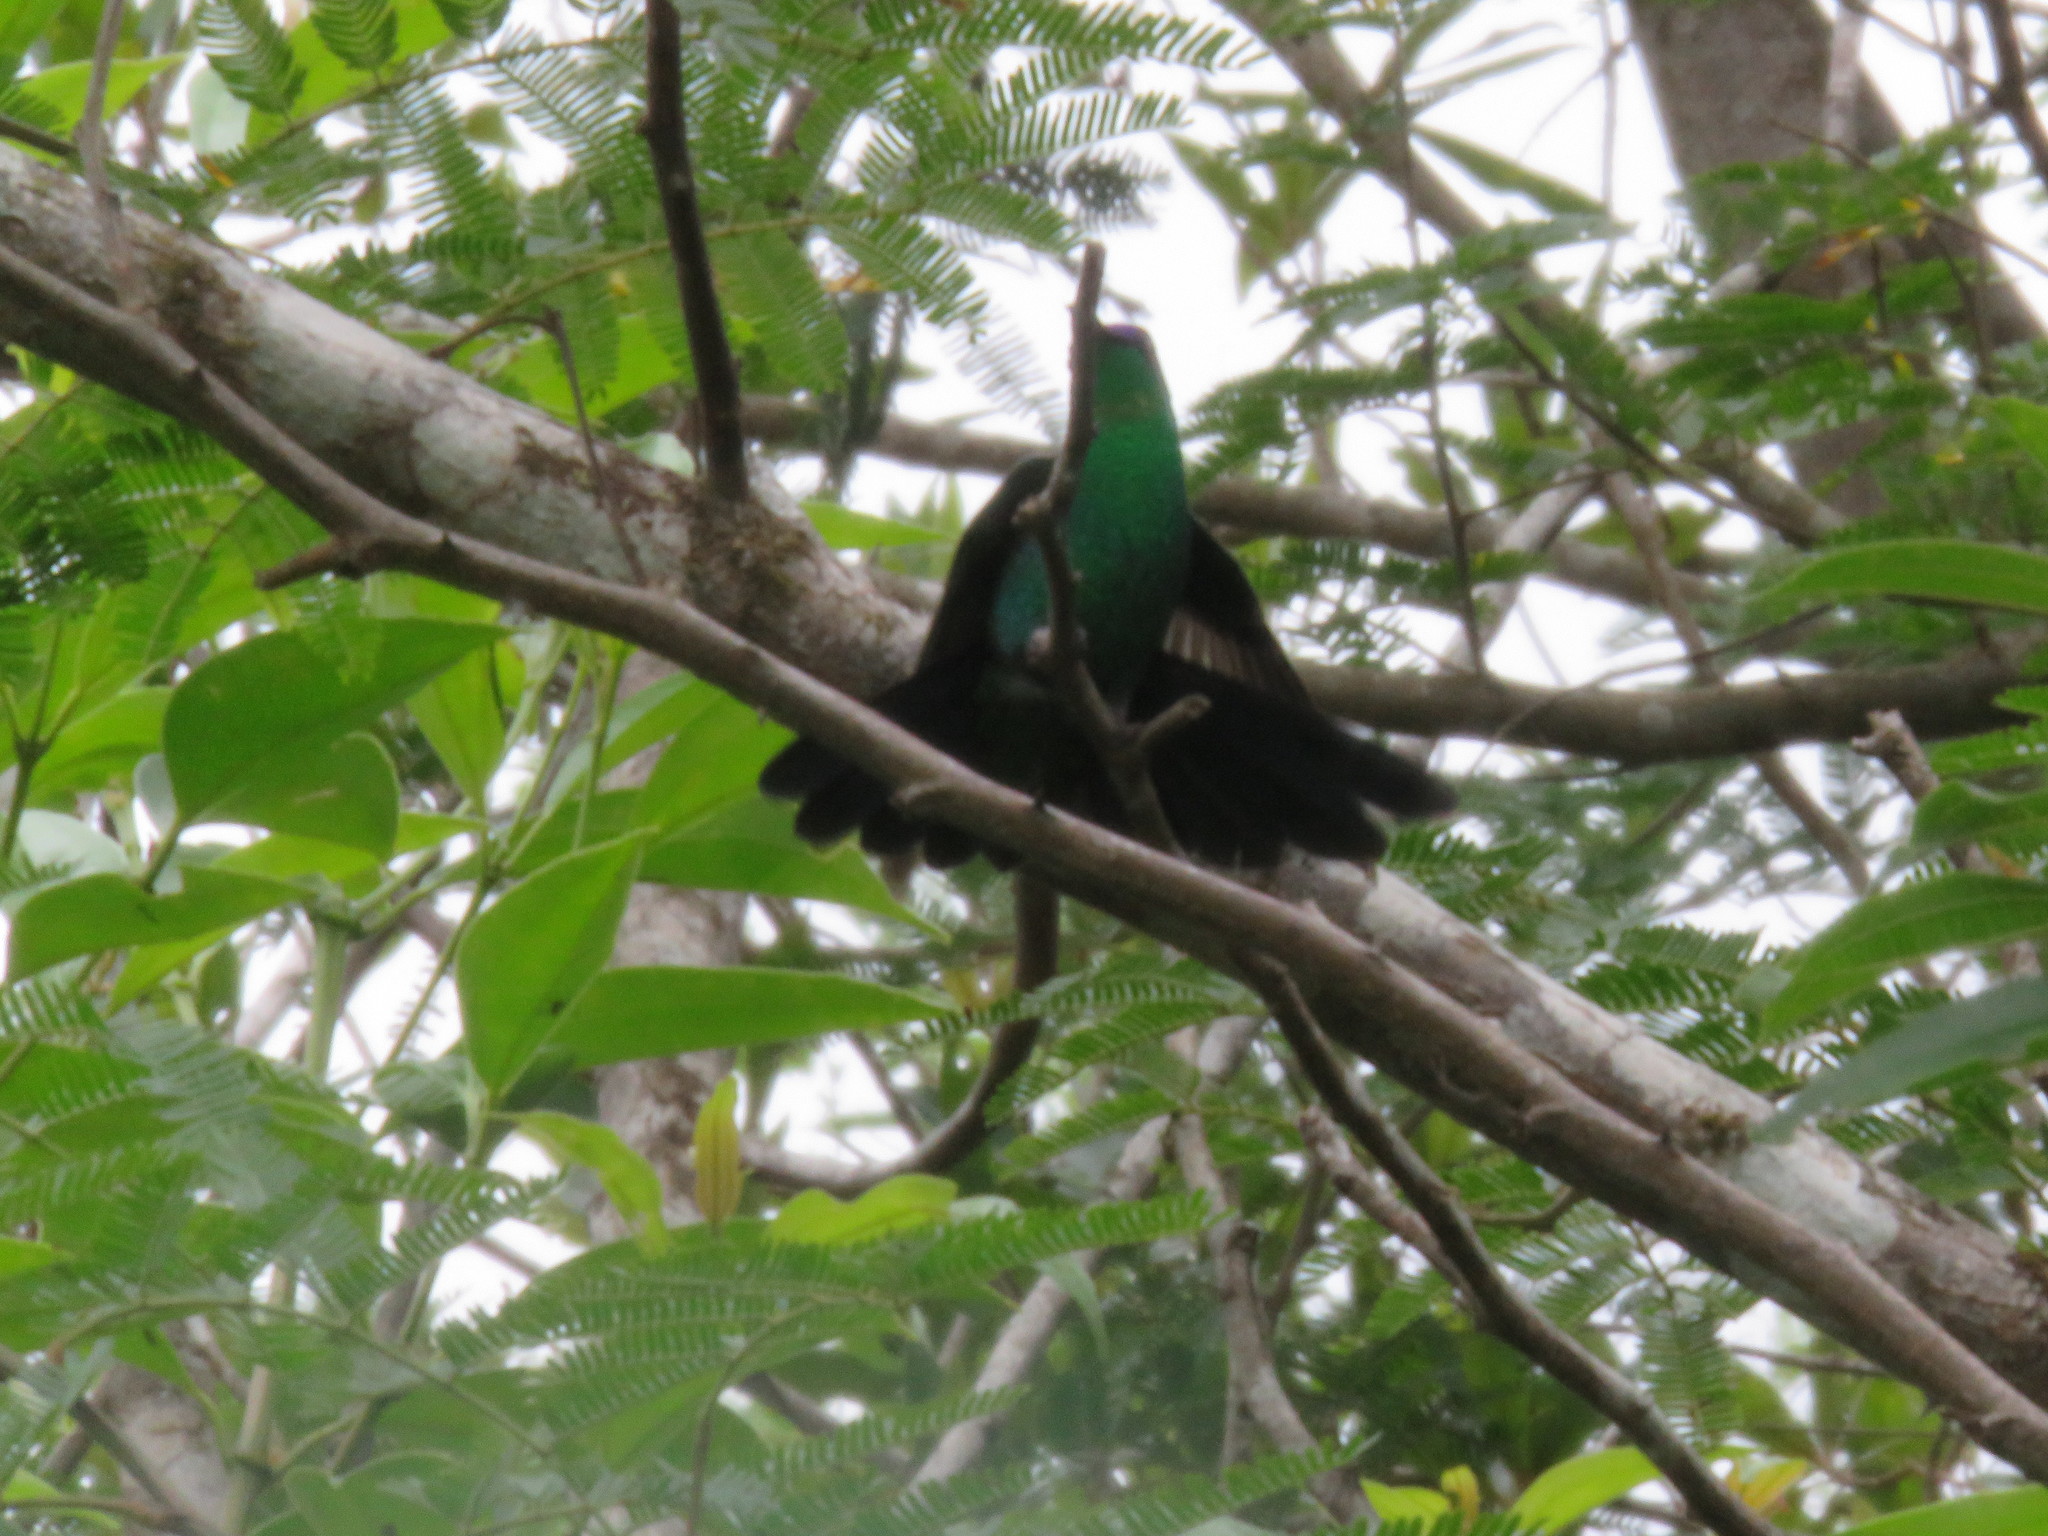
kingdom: Animalia
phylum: Chordata
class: Aves
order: Apodiformes
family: Trochilidae
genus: Thalurania
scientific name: Thalurania glaucopis
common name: Violet-capped woodnymph
